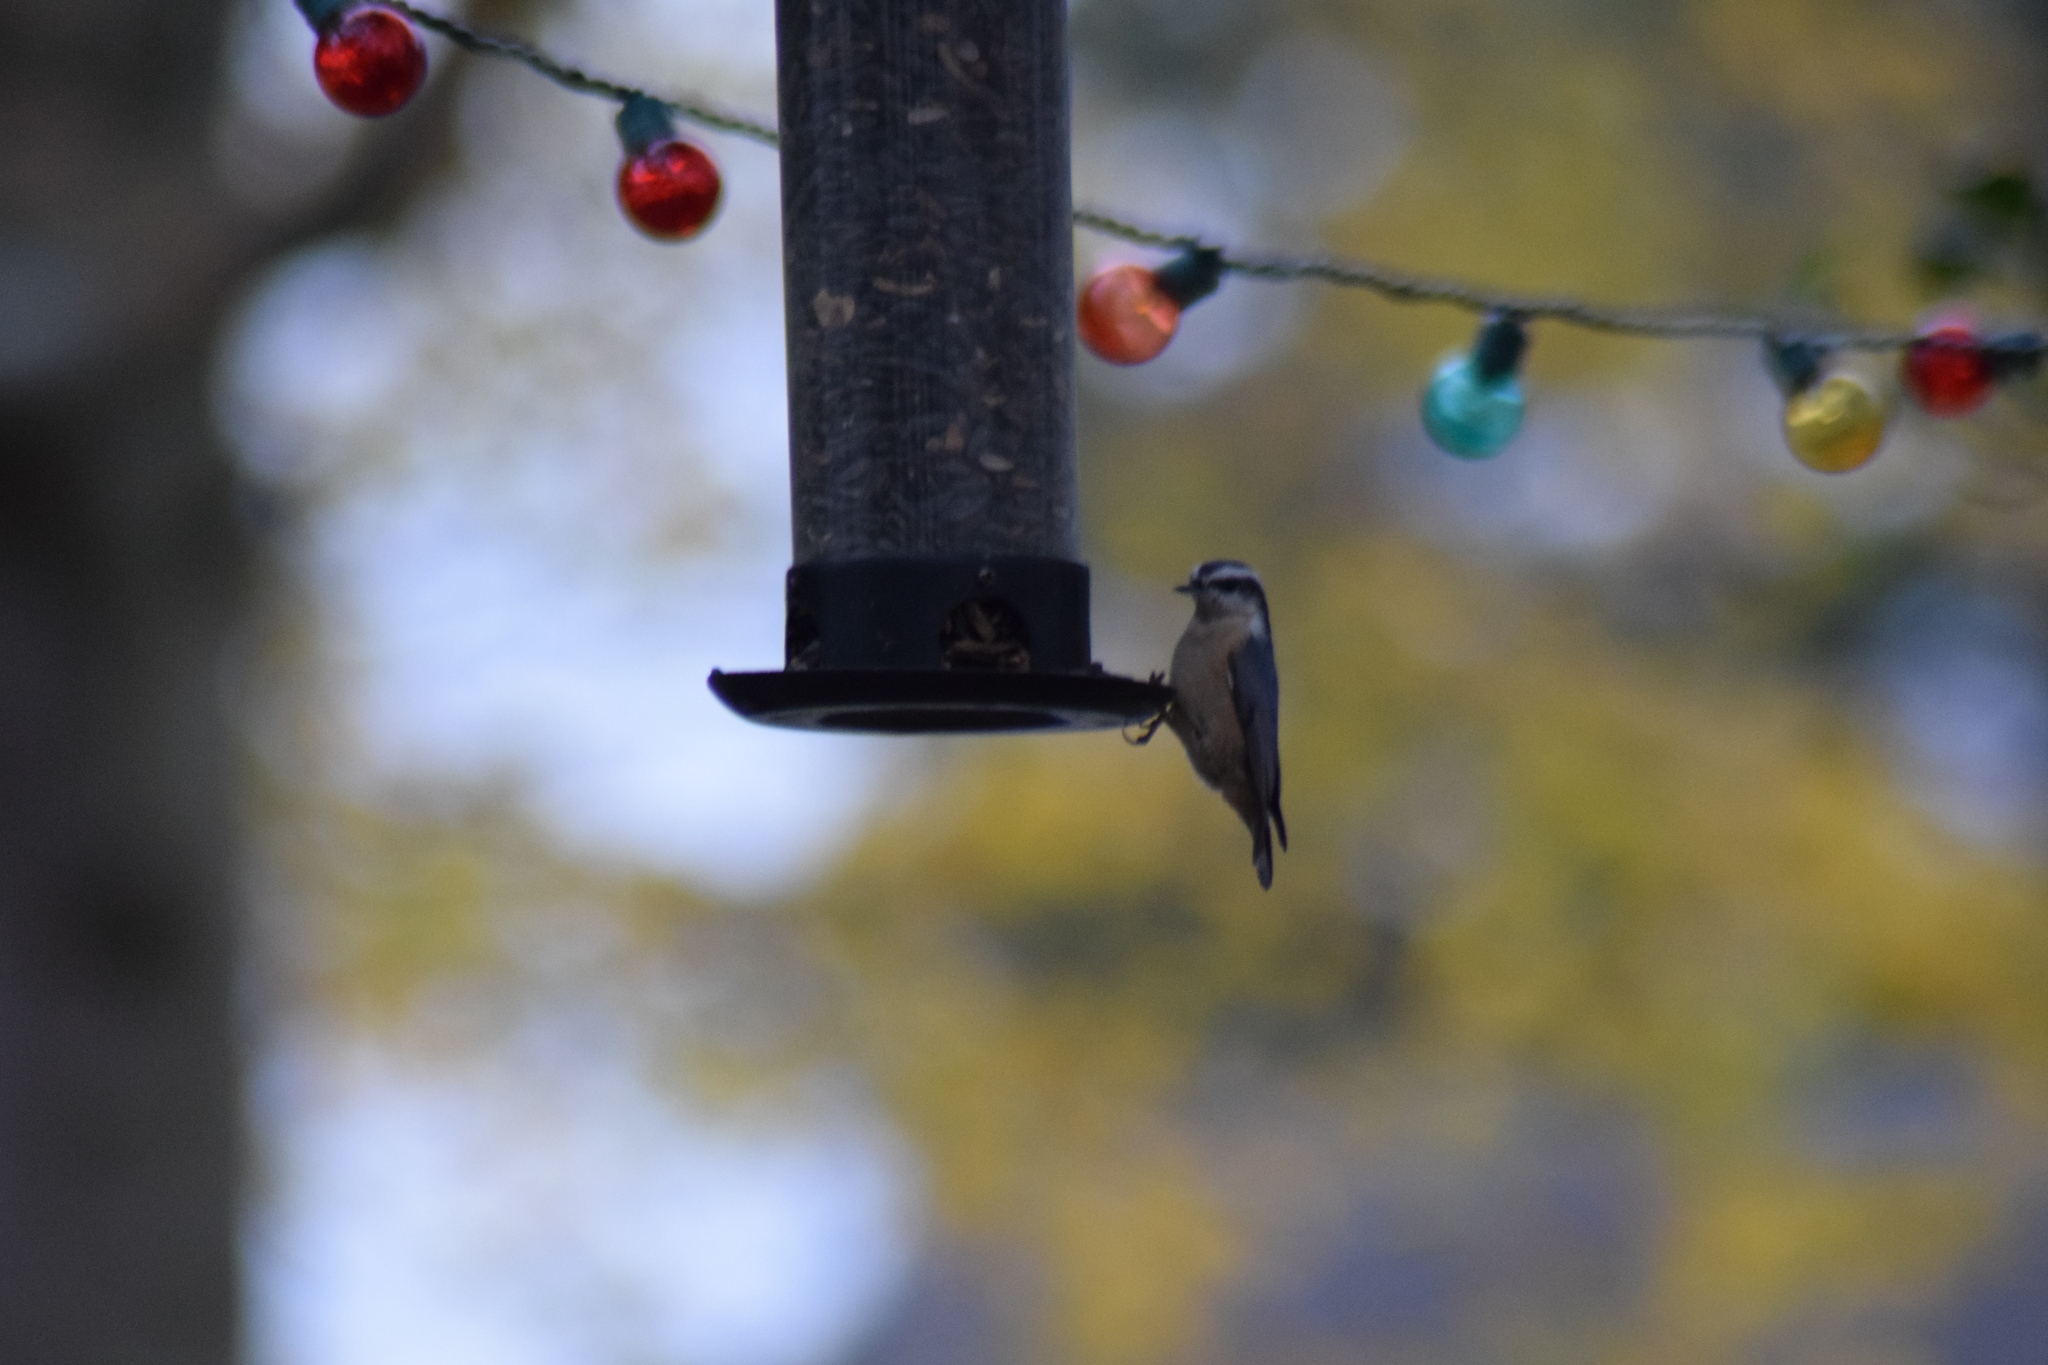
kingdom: Animalia
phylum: Chordata
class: Aves
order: Passeriformes
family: Sittidae
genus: Sitta
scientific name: Sitta canadensis
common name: Red-breasted nuthatch
